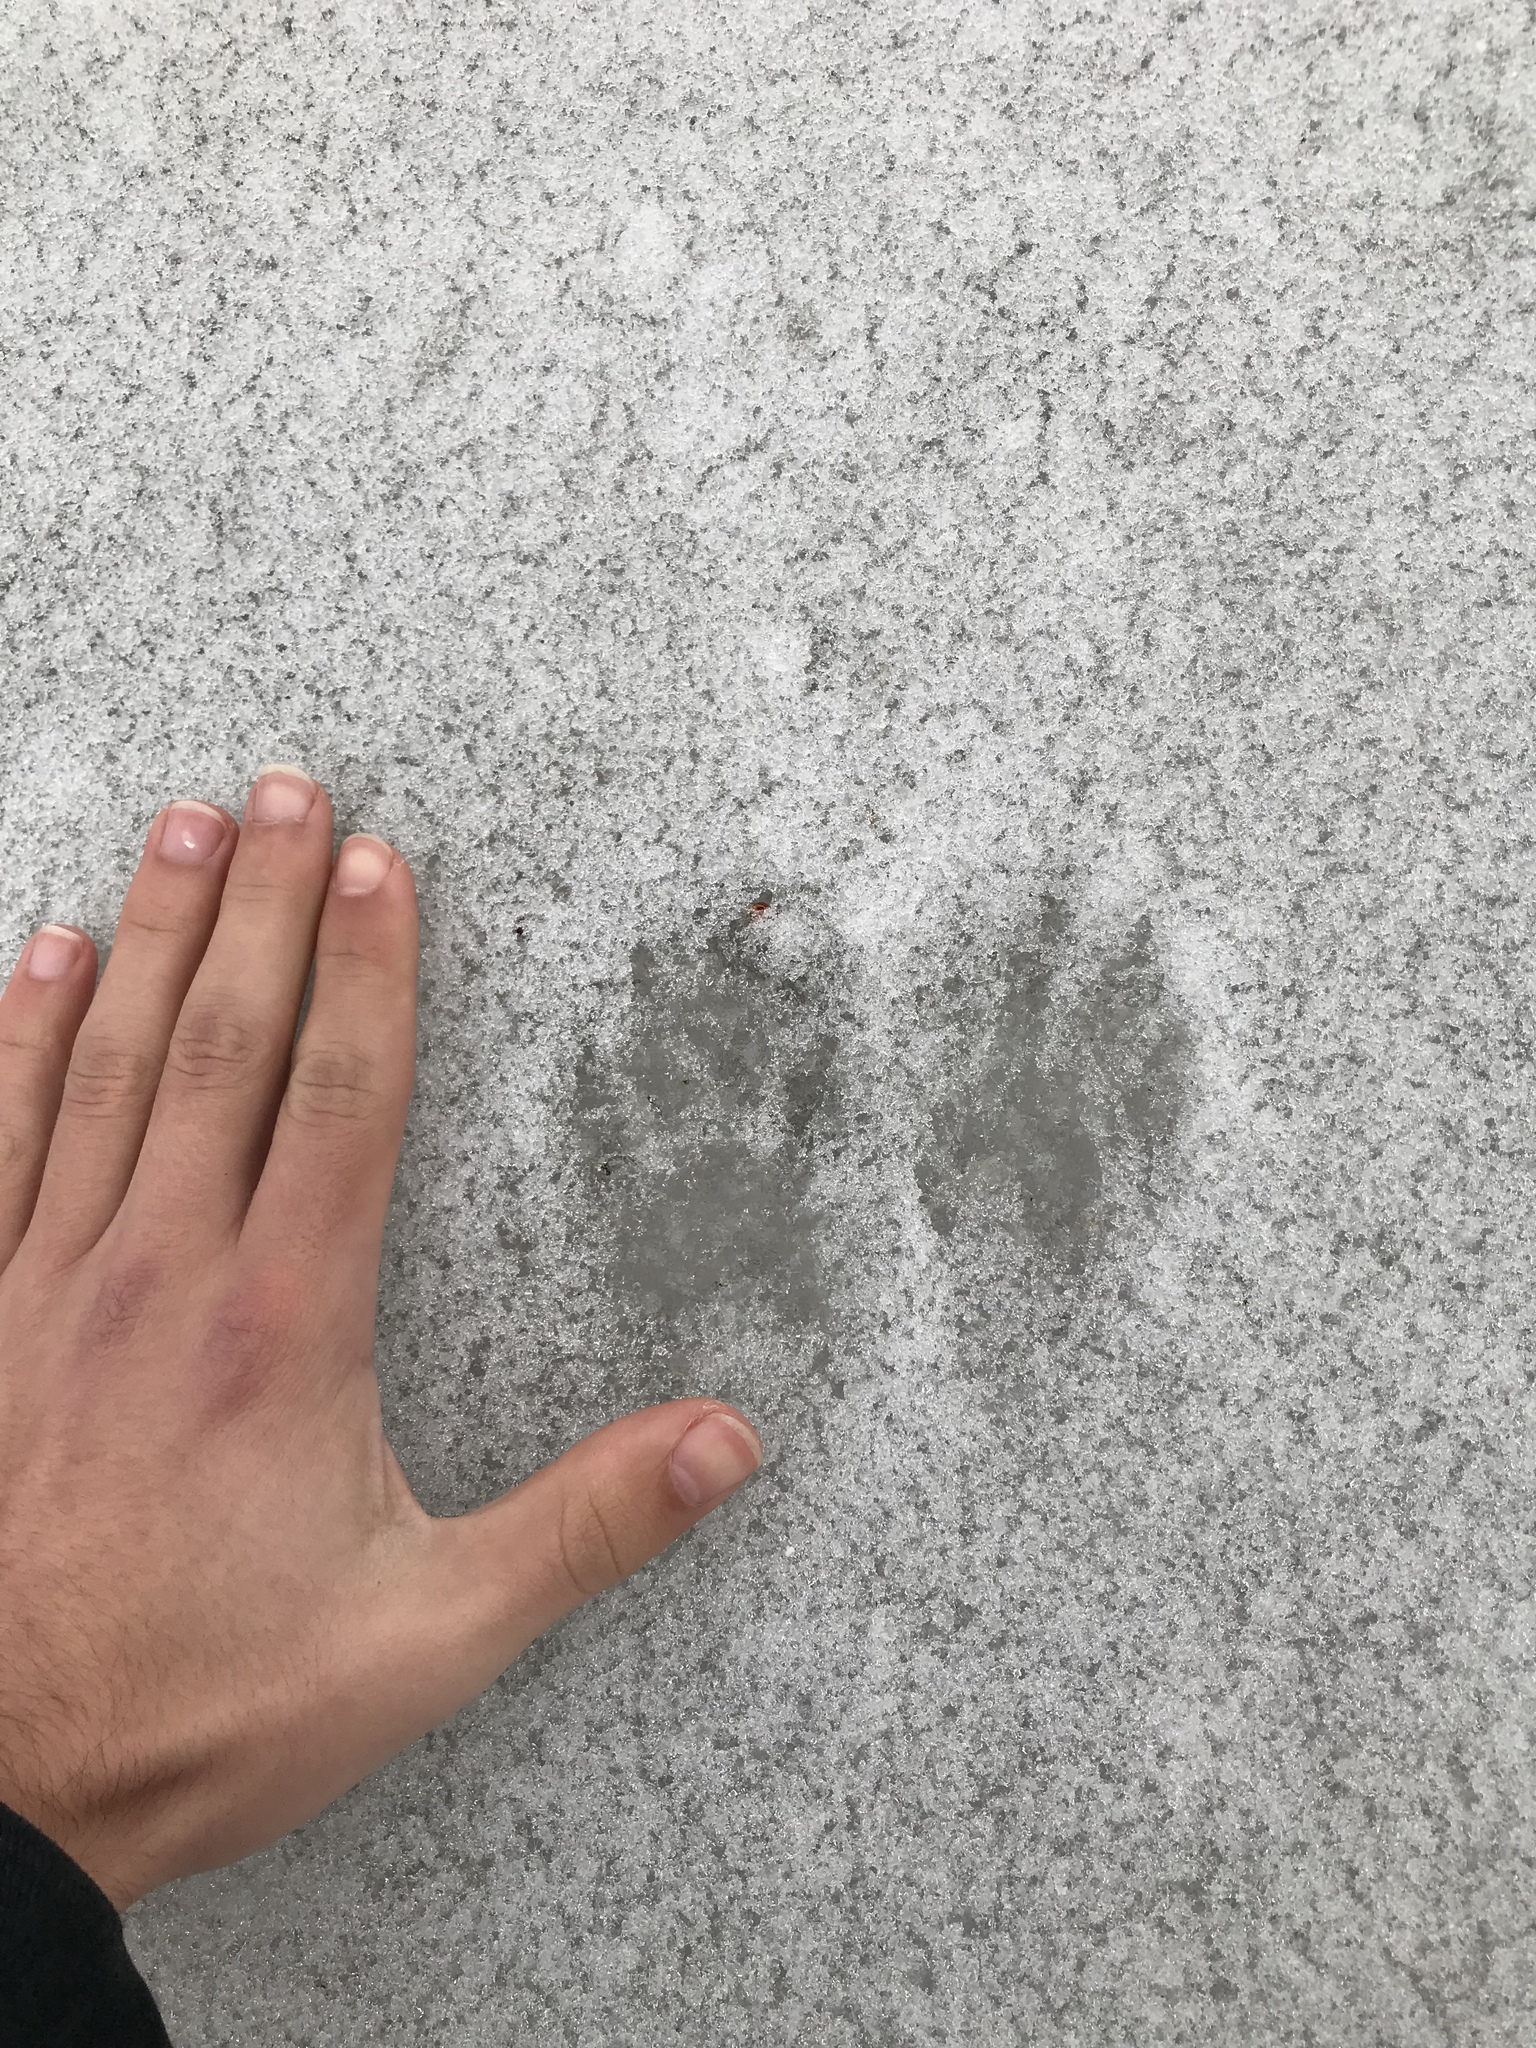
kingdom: Animalia
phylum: Chordata
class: Mammalia
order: Carnivora
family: Procyonidae
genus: Procyon
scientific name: Procyon lotor
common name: Raccoon
